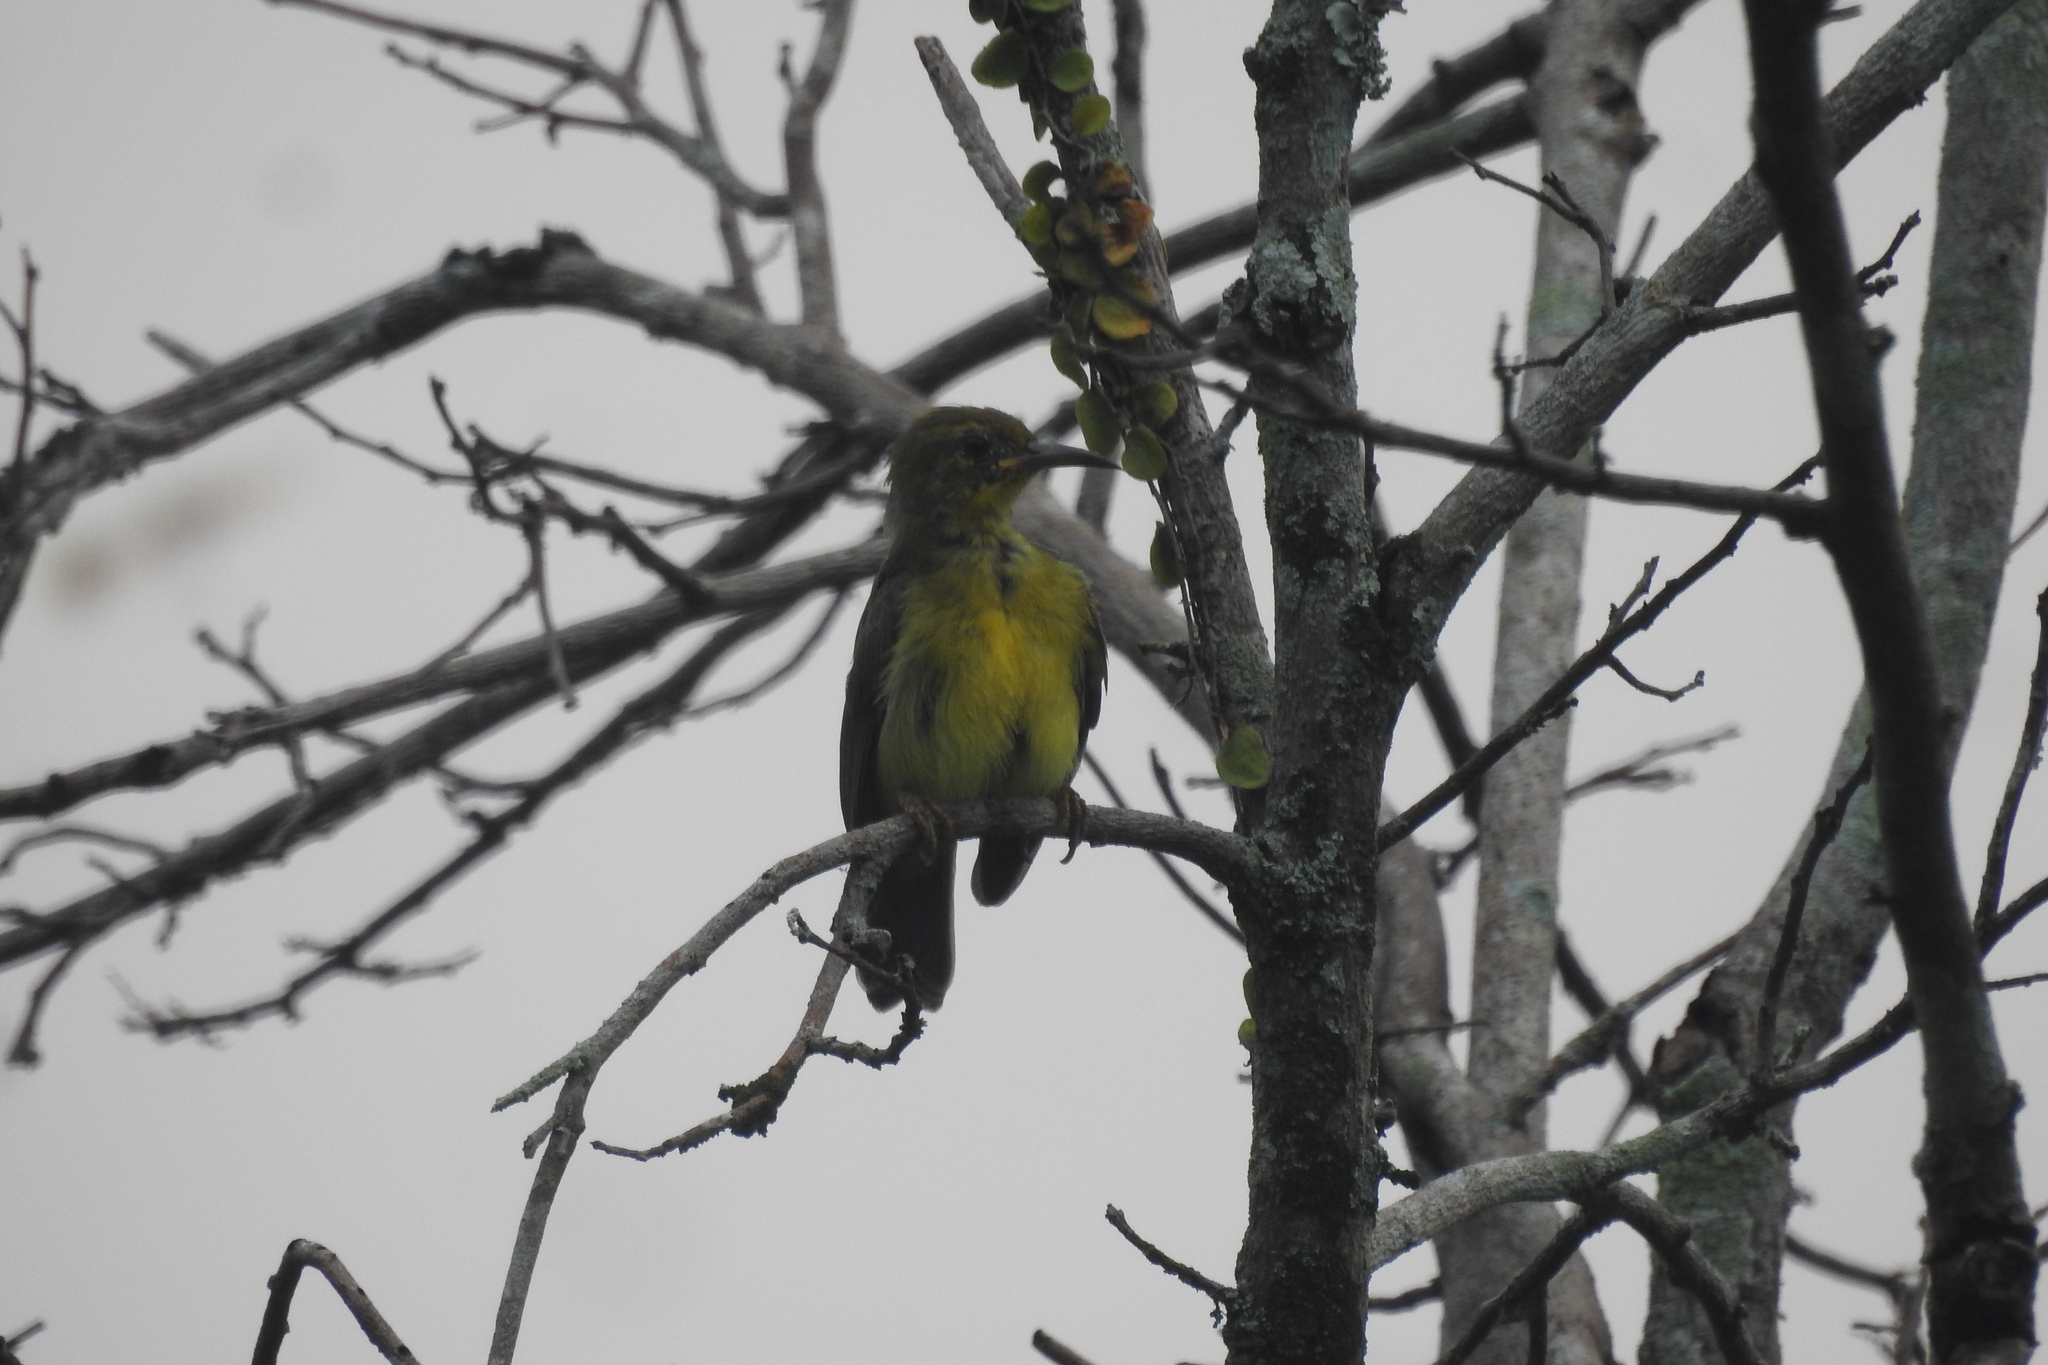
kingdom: Animalia
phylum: Chordata
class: Aves
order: Passeriformes
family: Nectariniidae
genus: Anthreptes
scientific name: Anthreptes malacensis
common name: Brown-throated sunbird
